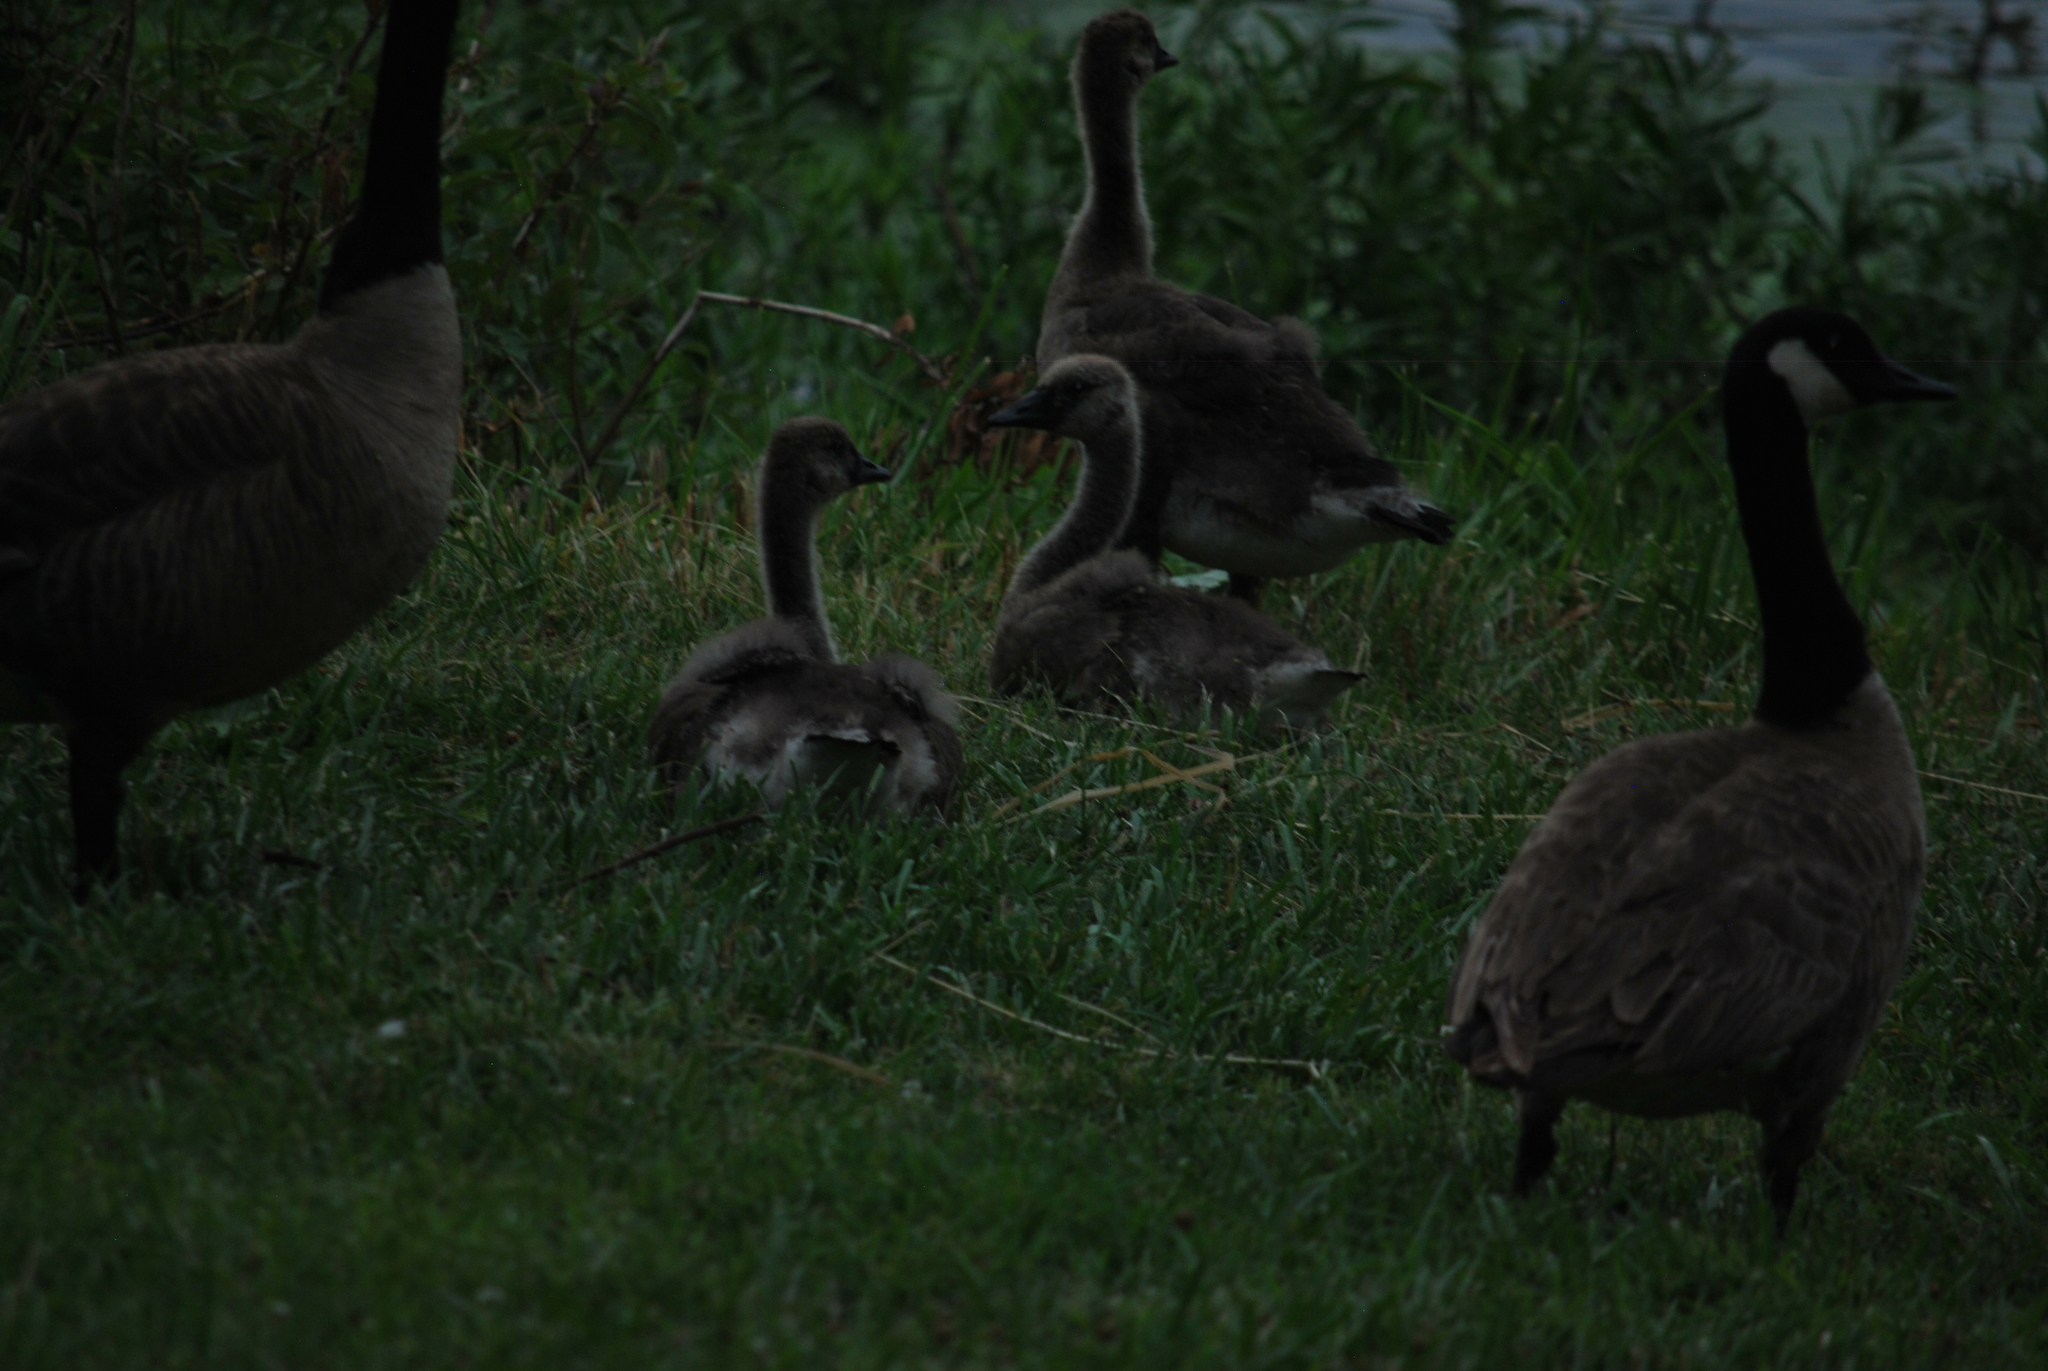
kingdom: Animalia
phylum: Chordata
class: Aves
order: Anseriformes
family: Anatidae
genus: Branta
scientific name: Branta canadensis
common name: Canada goose
